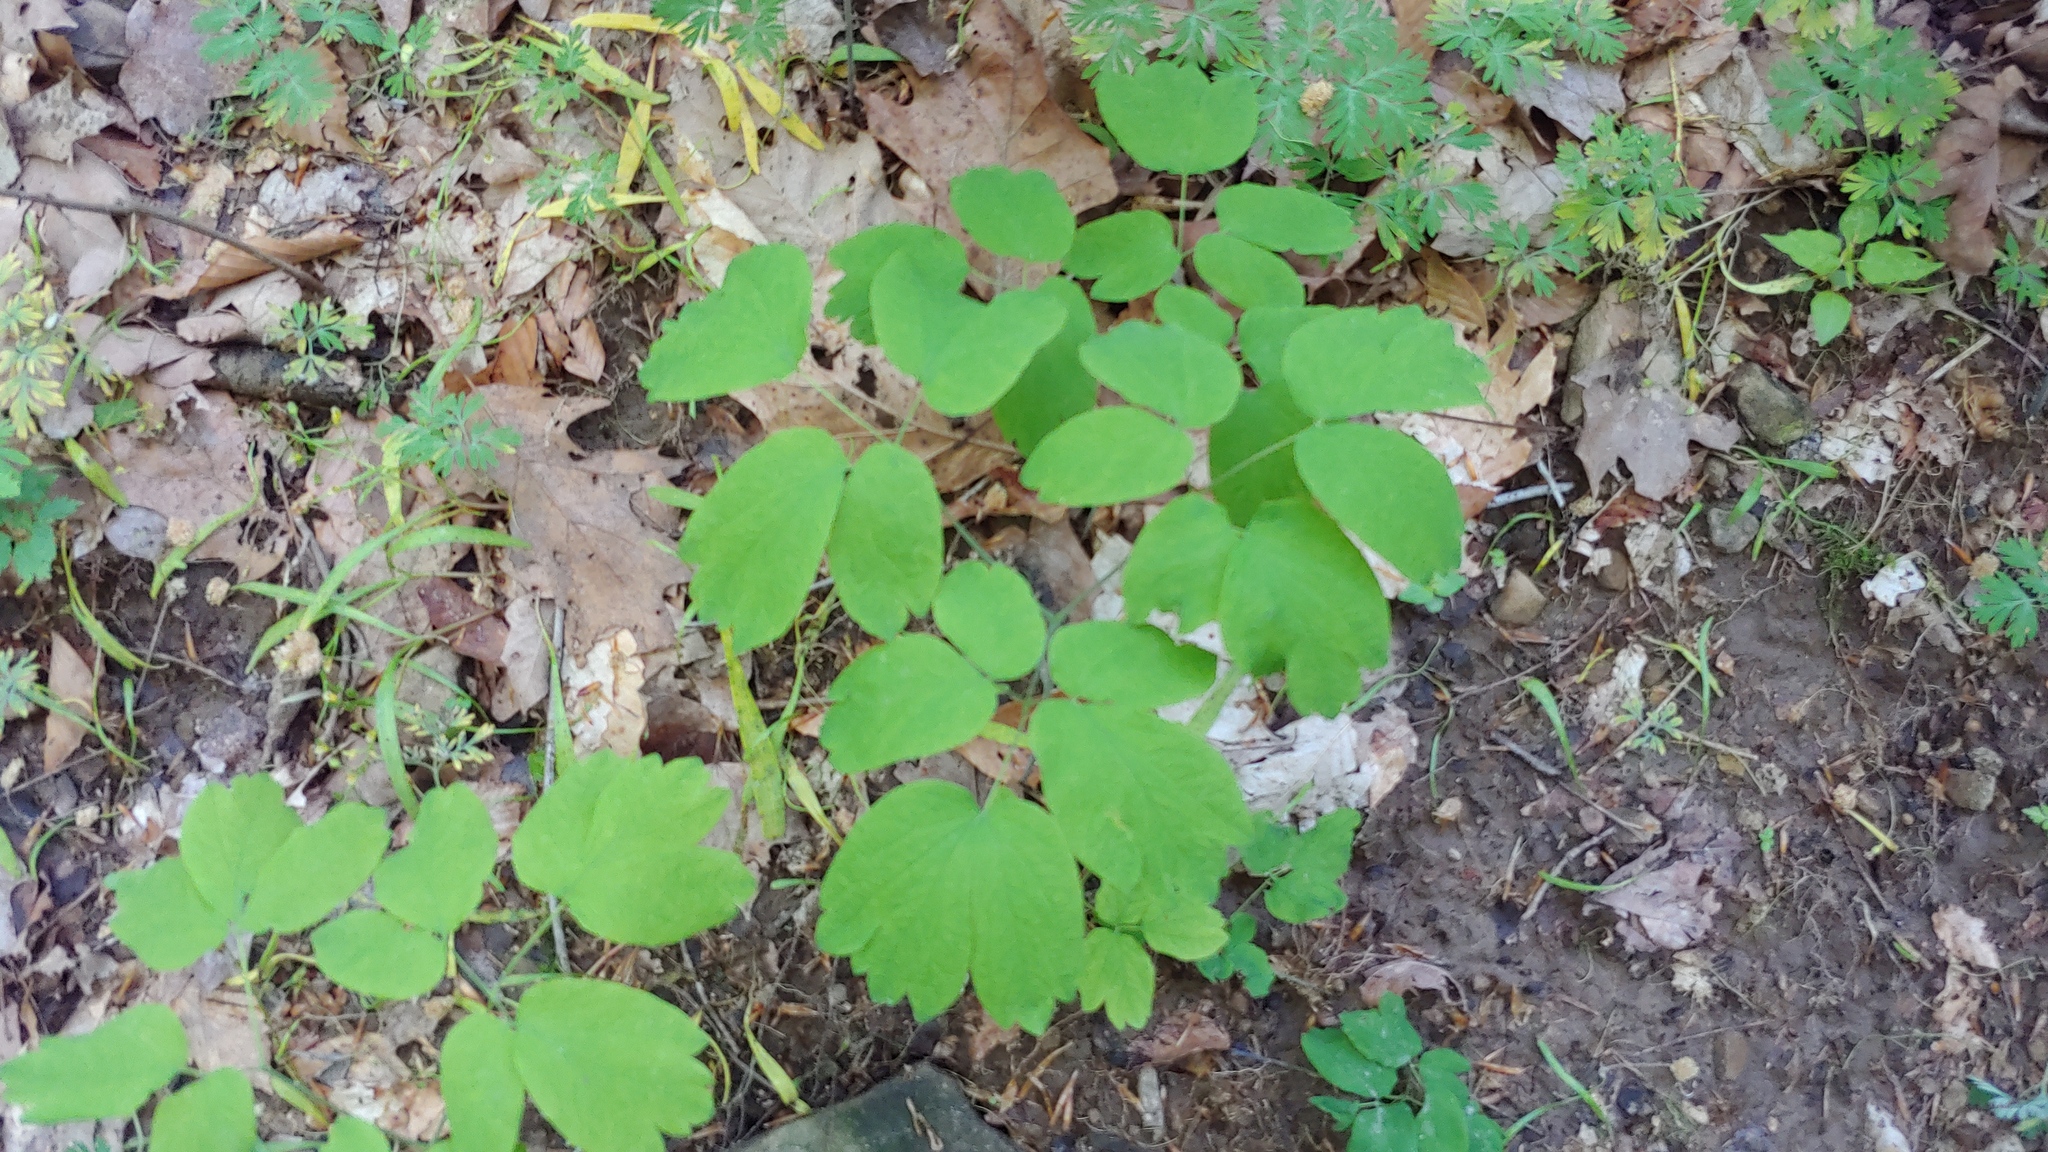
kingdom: Plantae
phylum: Tracheophyta
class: Magnoliopsida
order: Ranunculales
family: Berberidaceae
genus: Caulophyllum
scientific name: Caulophyllum thalictroides
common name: Blue cohosh
